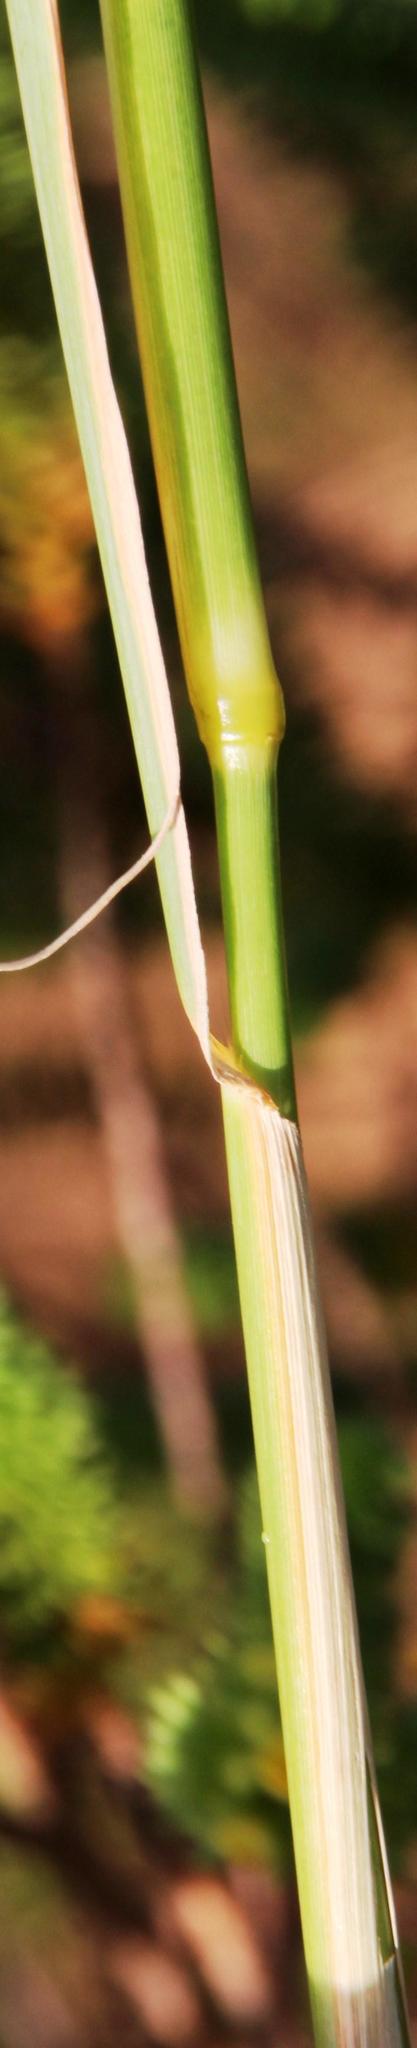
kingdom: Plantae
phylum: Tracheophyta
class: Liliopsida
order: Poales
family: Poaceae
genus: Eustachys
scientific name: Eustachys paspaloides
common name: Caribbean fingergrass
